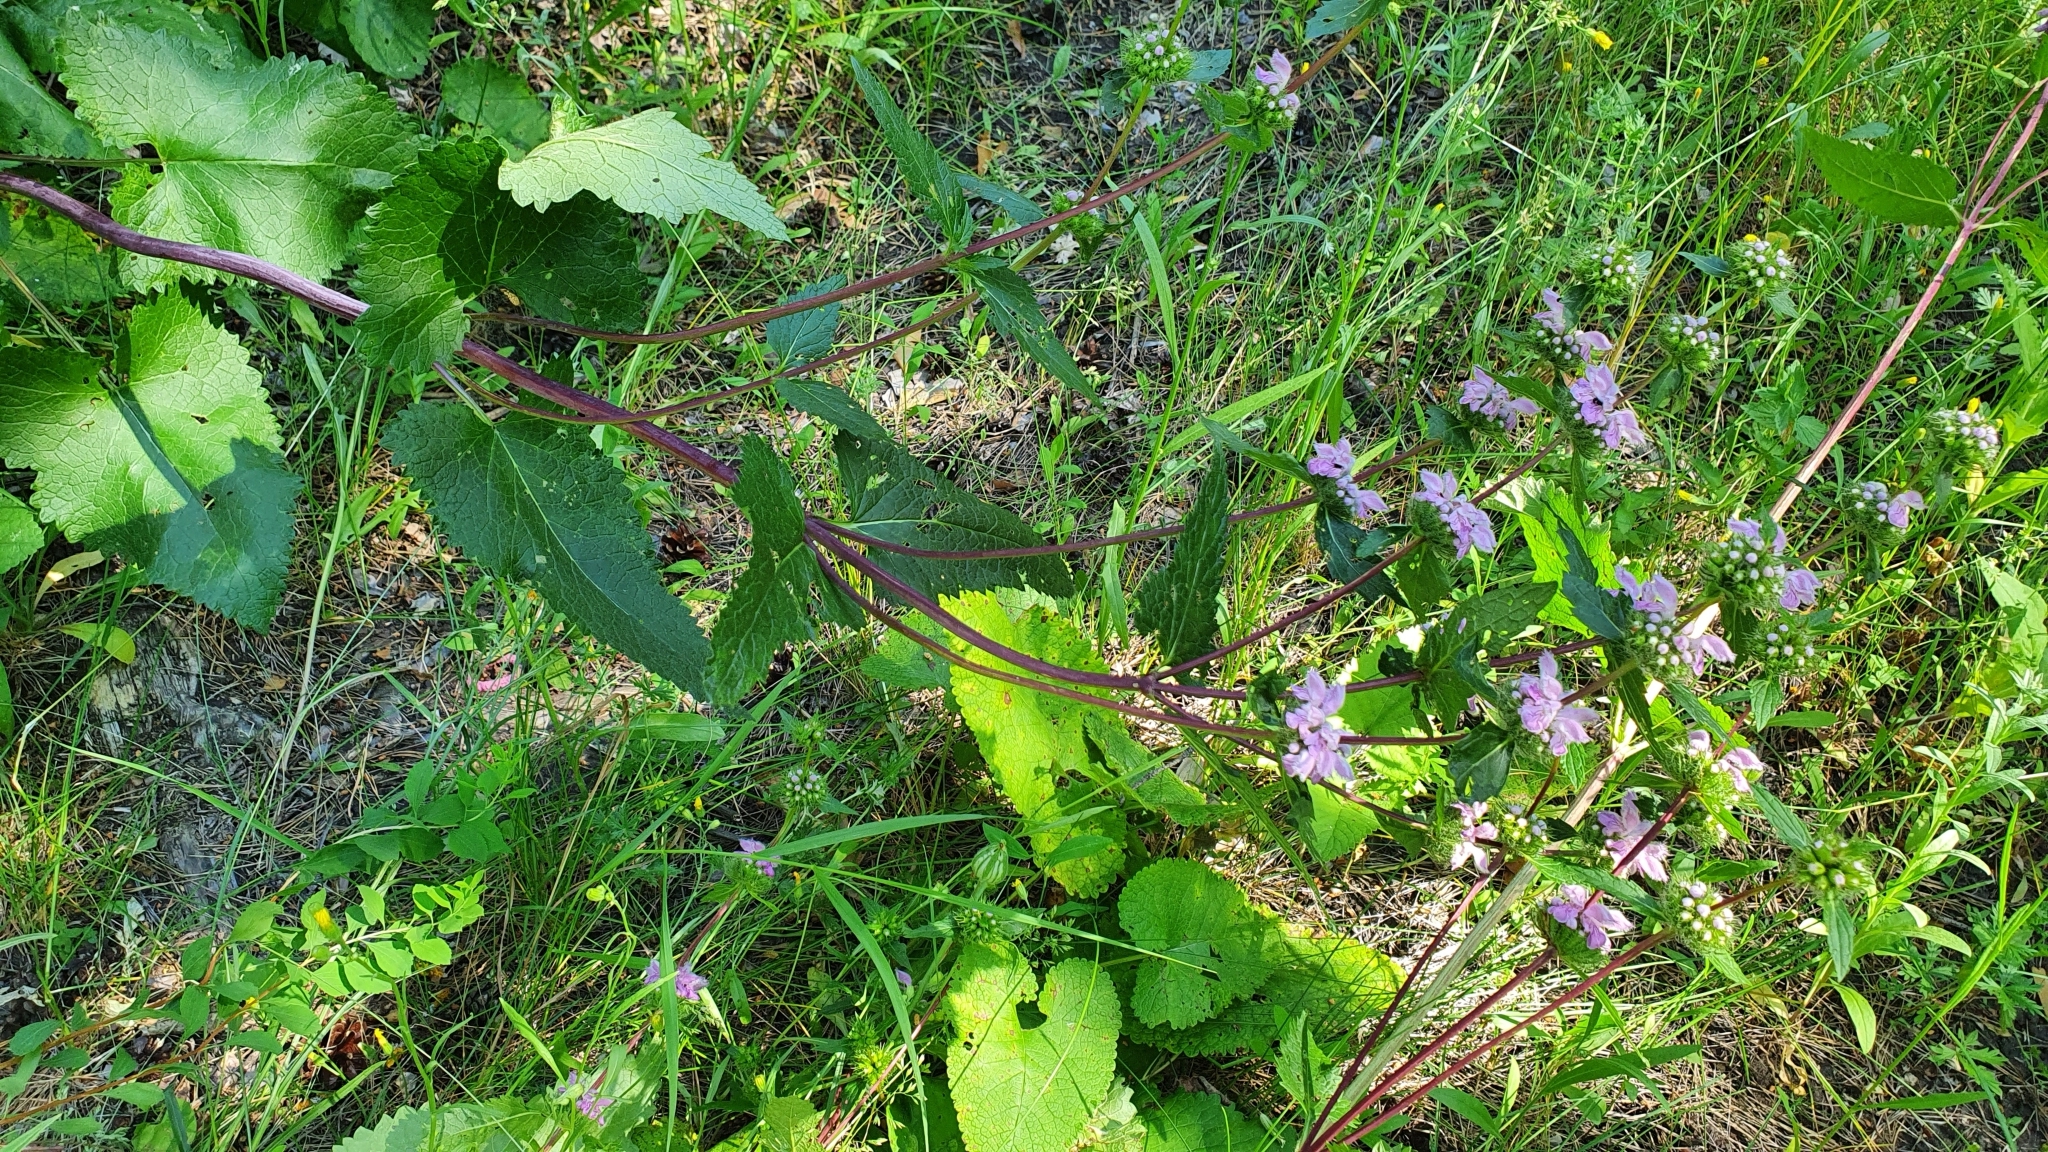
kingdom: Plantae
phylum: Tracheophyta
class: Magnoliopsida
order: Lamiales
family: Lamiaceae
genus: Phlomoides
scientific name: Phlomoides tuberosa
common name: Tuberous jerusalem sage
